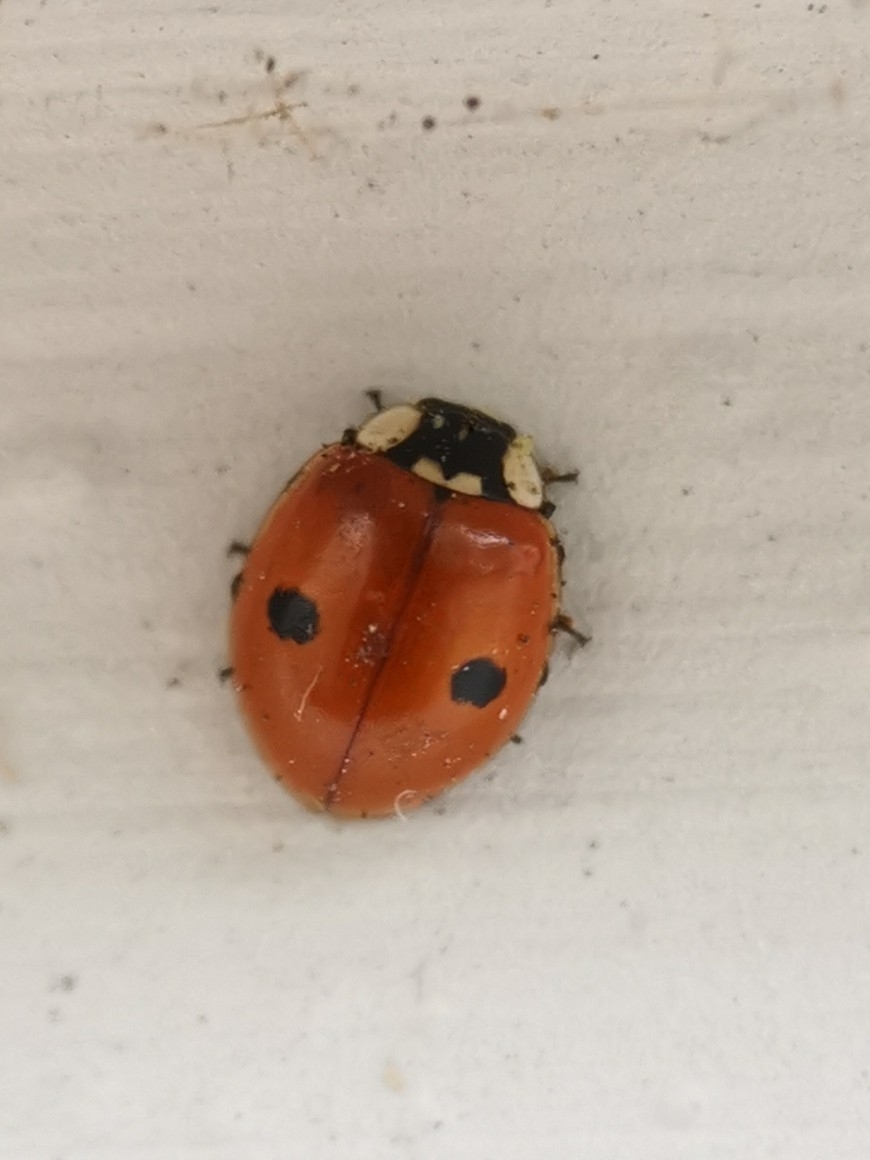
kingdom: Animalia
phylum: Arthropoda
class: Insecta
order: Coleoptera
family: Coccinellidae
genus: Adalia
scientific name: Adalia bipunctata
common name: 2-spot ladybird
